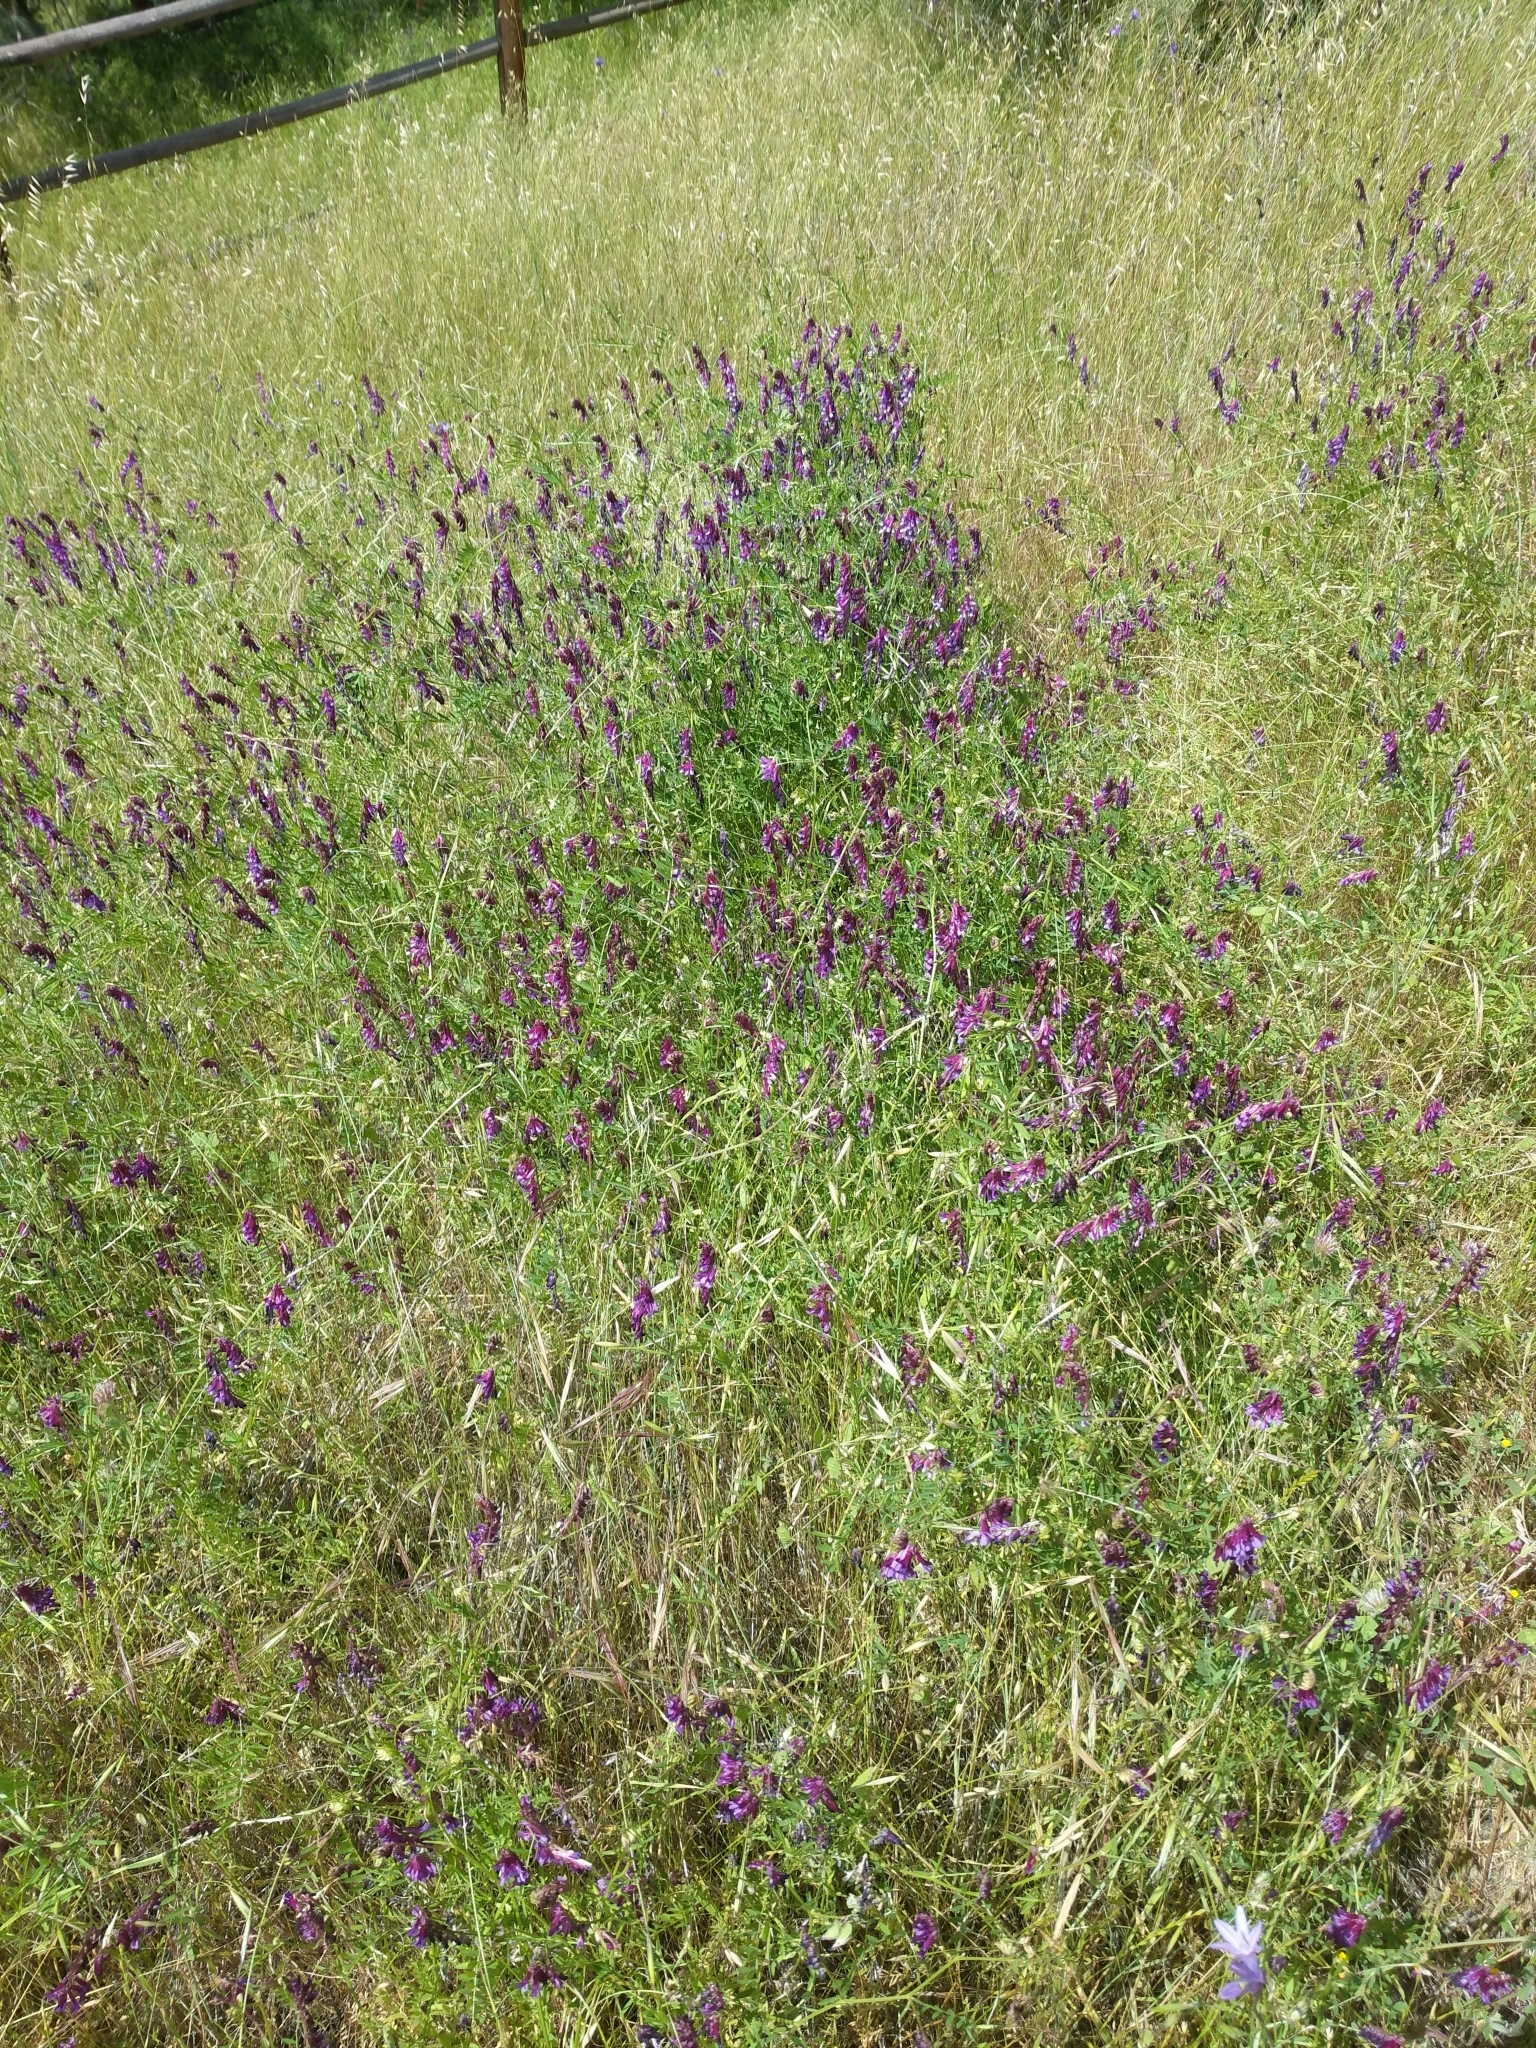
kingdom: Plantae
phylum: Tracheophyta
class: Magnoliopsida
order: Fabales
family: Fabaceae
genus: Vicia
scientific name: Vicia villosa
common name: Fodder vetch
